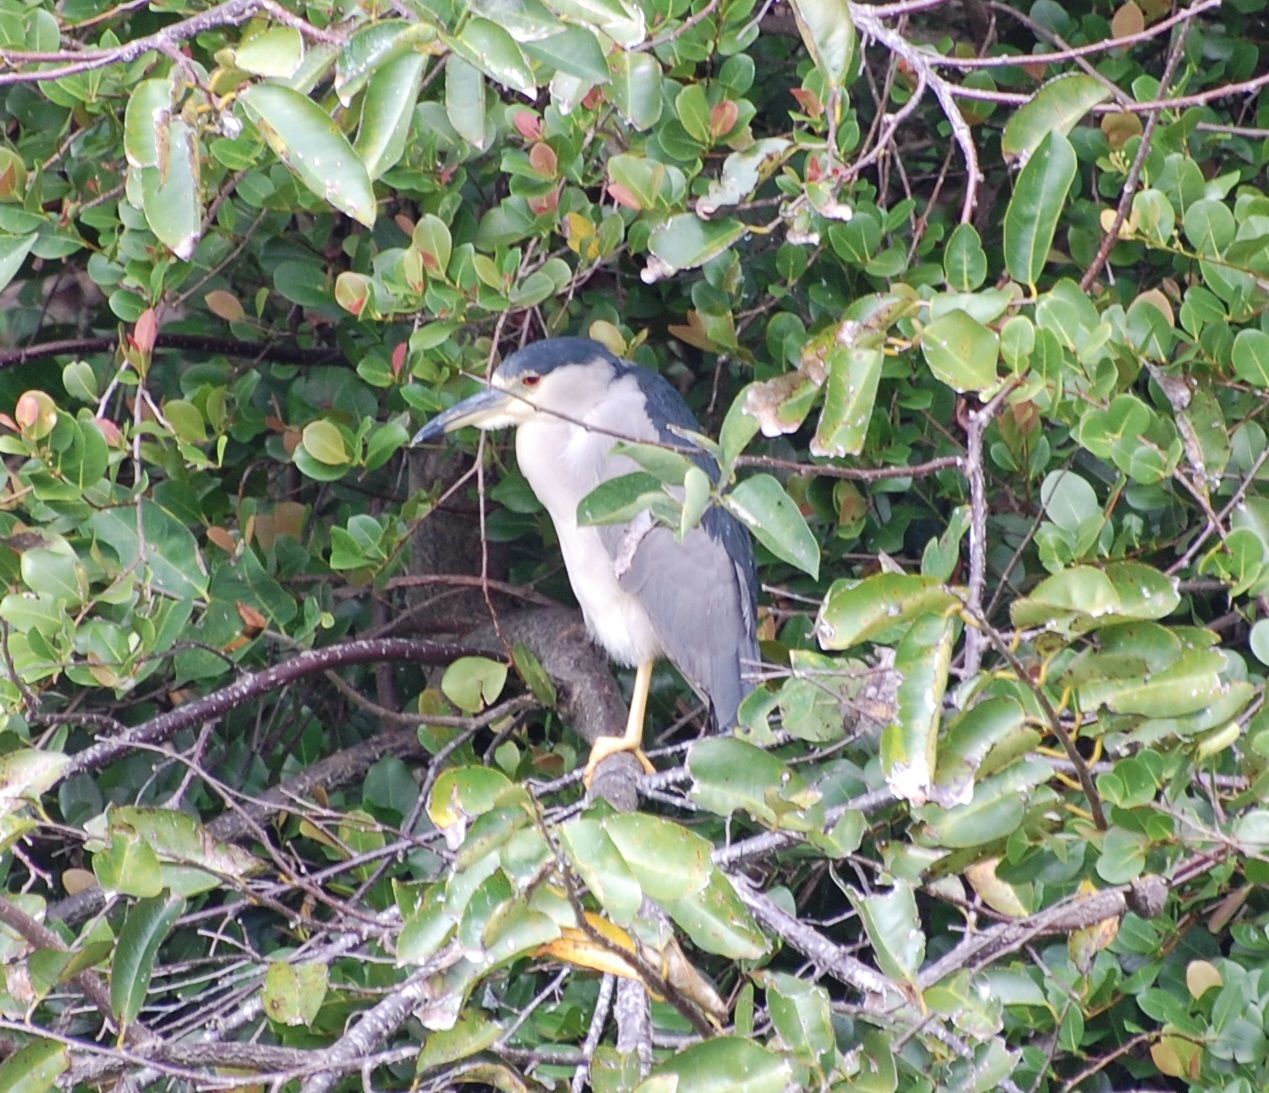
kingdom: Animalia
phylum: Chordata
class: Aves
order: Pelecaniformes
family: Ardeidae
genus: Nycticorax
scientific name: Nycticorax nycticorax
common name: Black-crowned night heron
